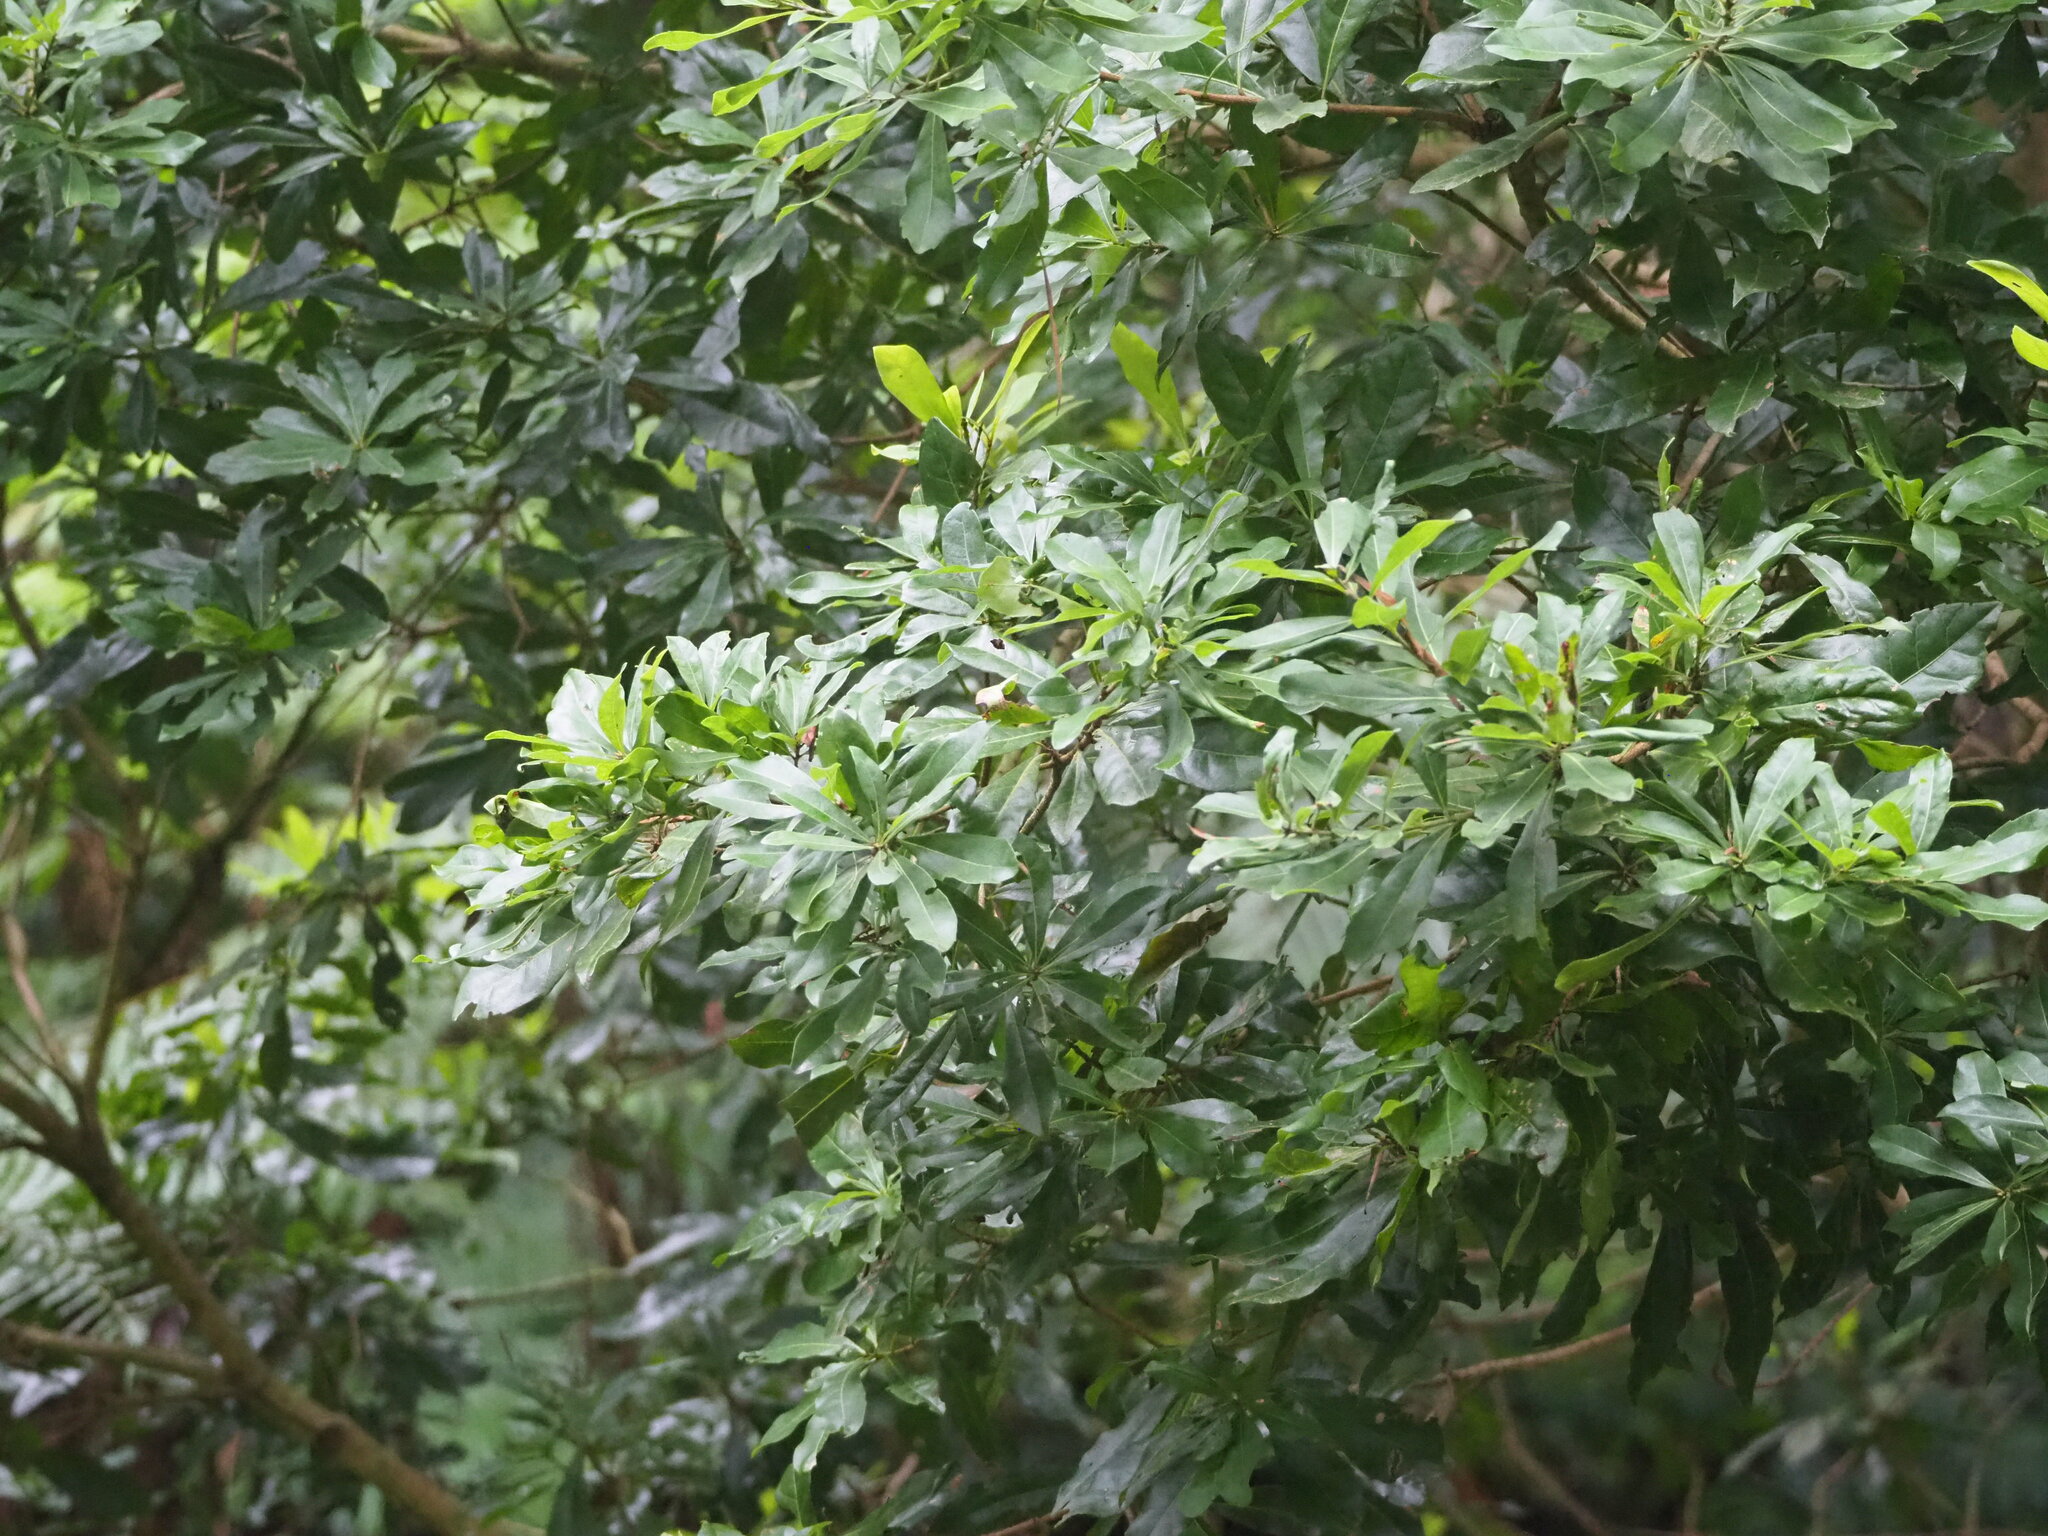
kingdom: Plantae
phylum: Tracheophyta
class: Magnoliopsida
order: Fagales
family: Myricaceae
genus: Morella
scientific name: Morella rubra
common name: Red bayberry
